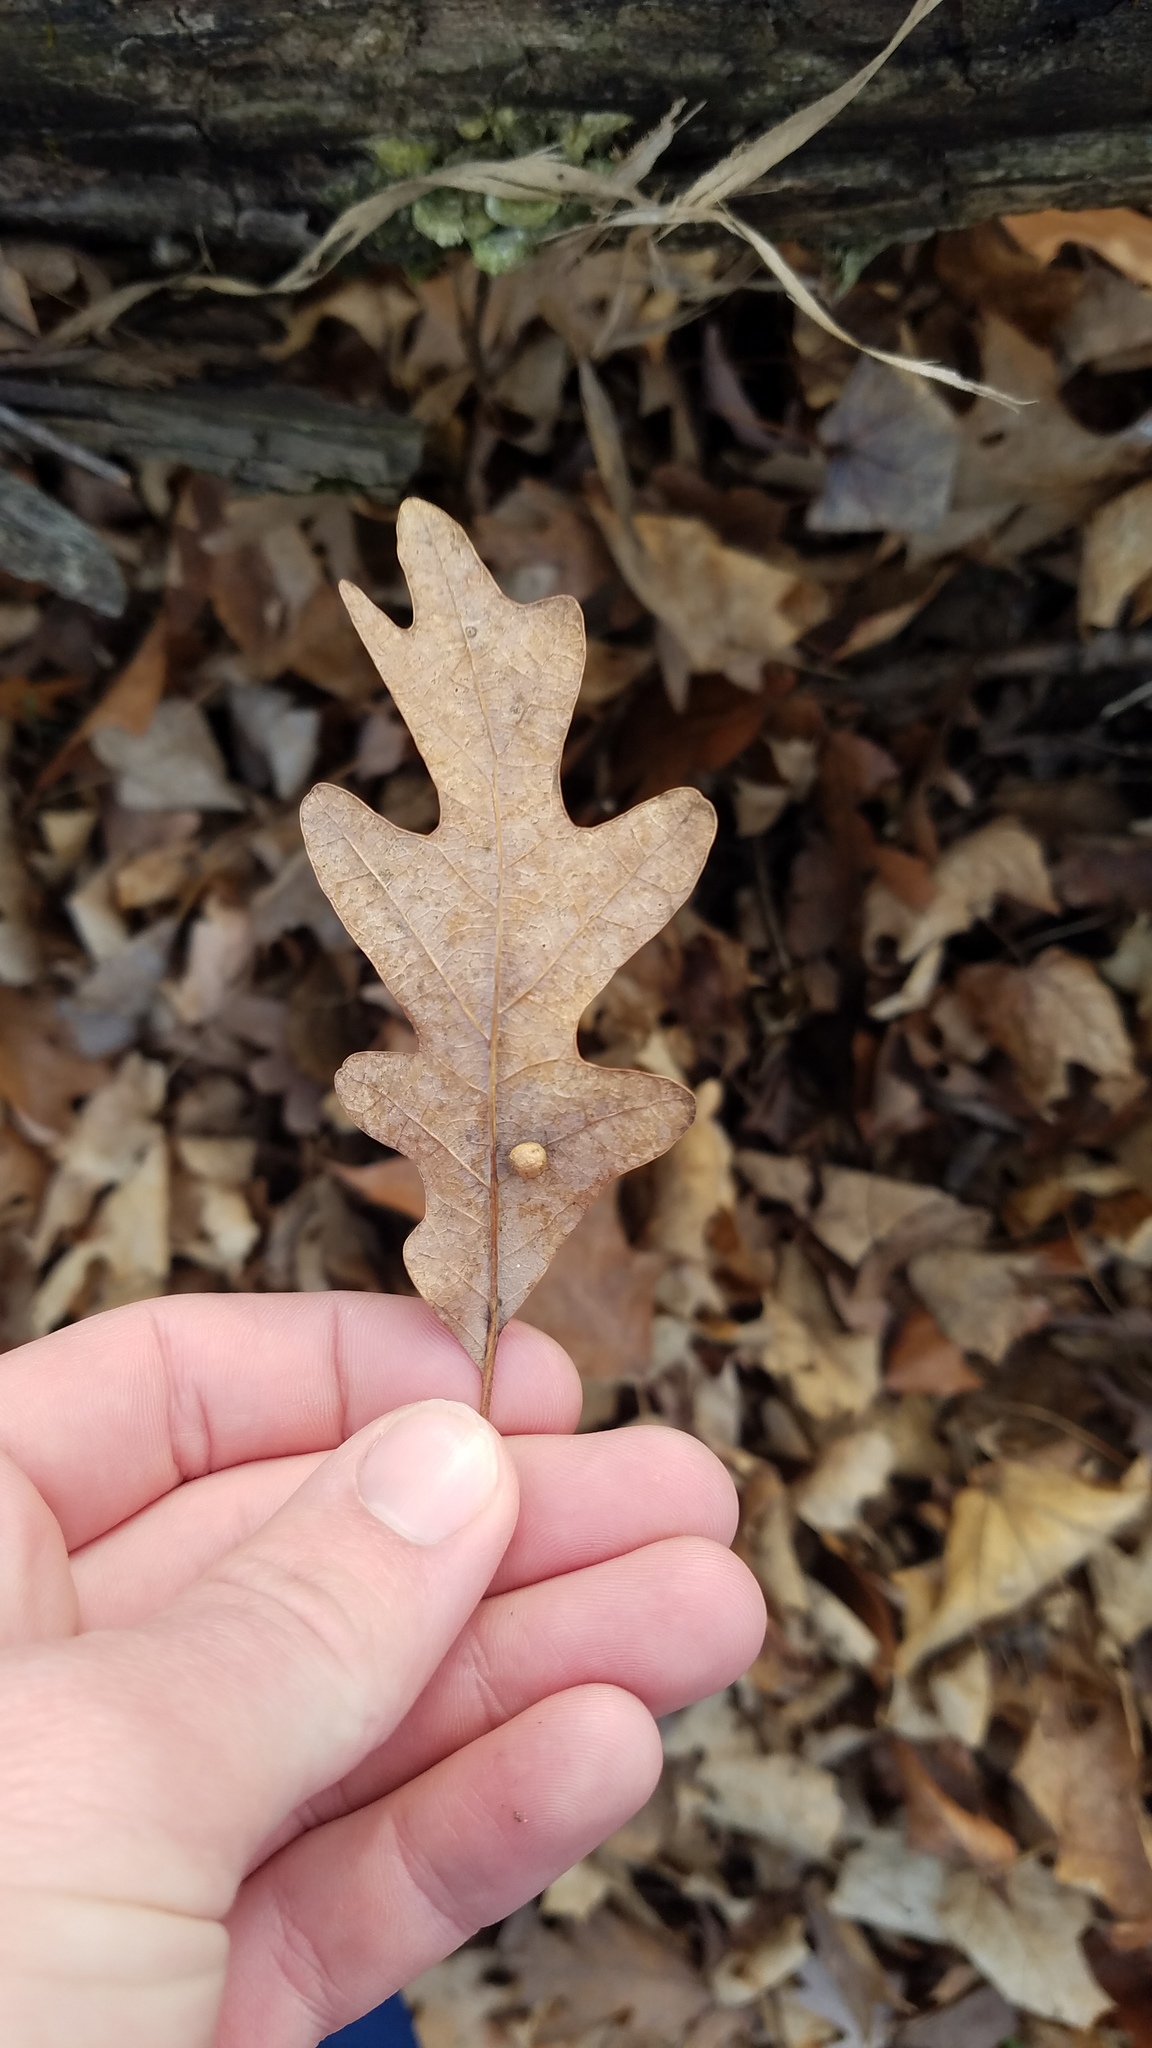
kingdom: Plantae
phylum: Tracheophyta
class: Magnoliopsida
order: Fagales
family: Fagaceae
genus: Quercus
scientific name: Quercus alba
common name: White oak
